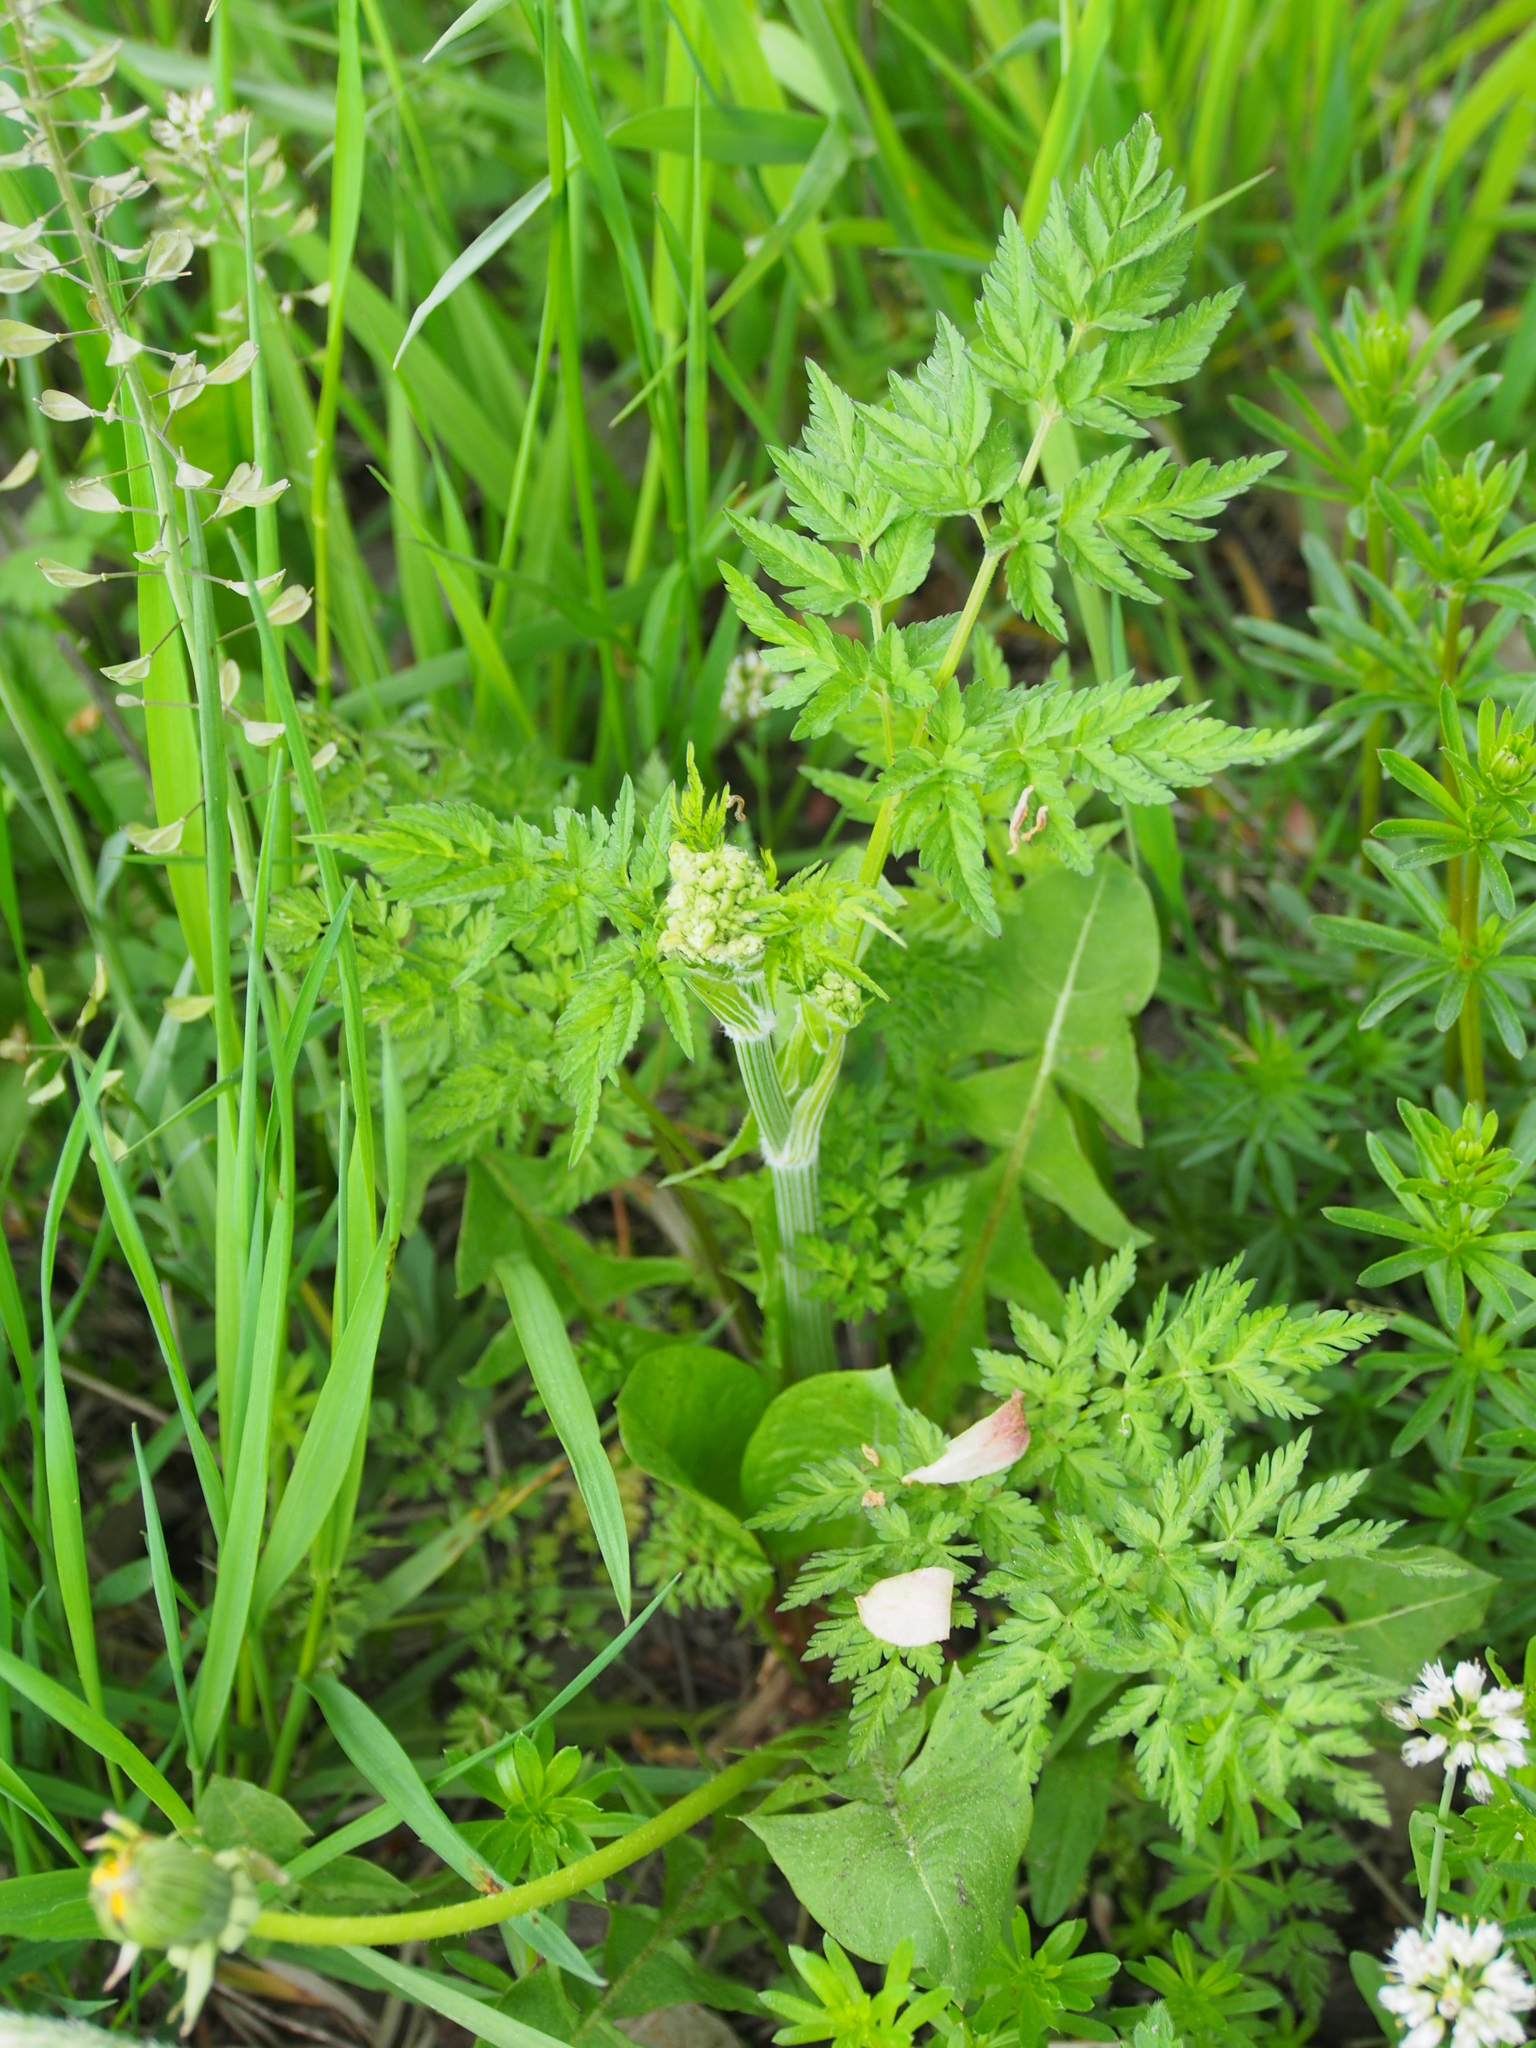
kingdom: Plantae
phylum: Tracheophyta
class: Magnoliopsida
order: Apiales
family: Apiaceae
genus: Anthriscus
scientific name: Anthriscus sylvestris
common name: Cow parsley
